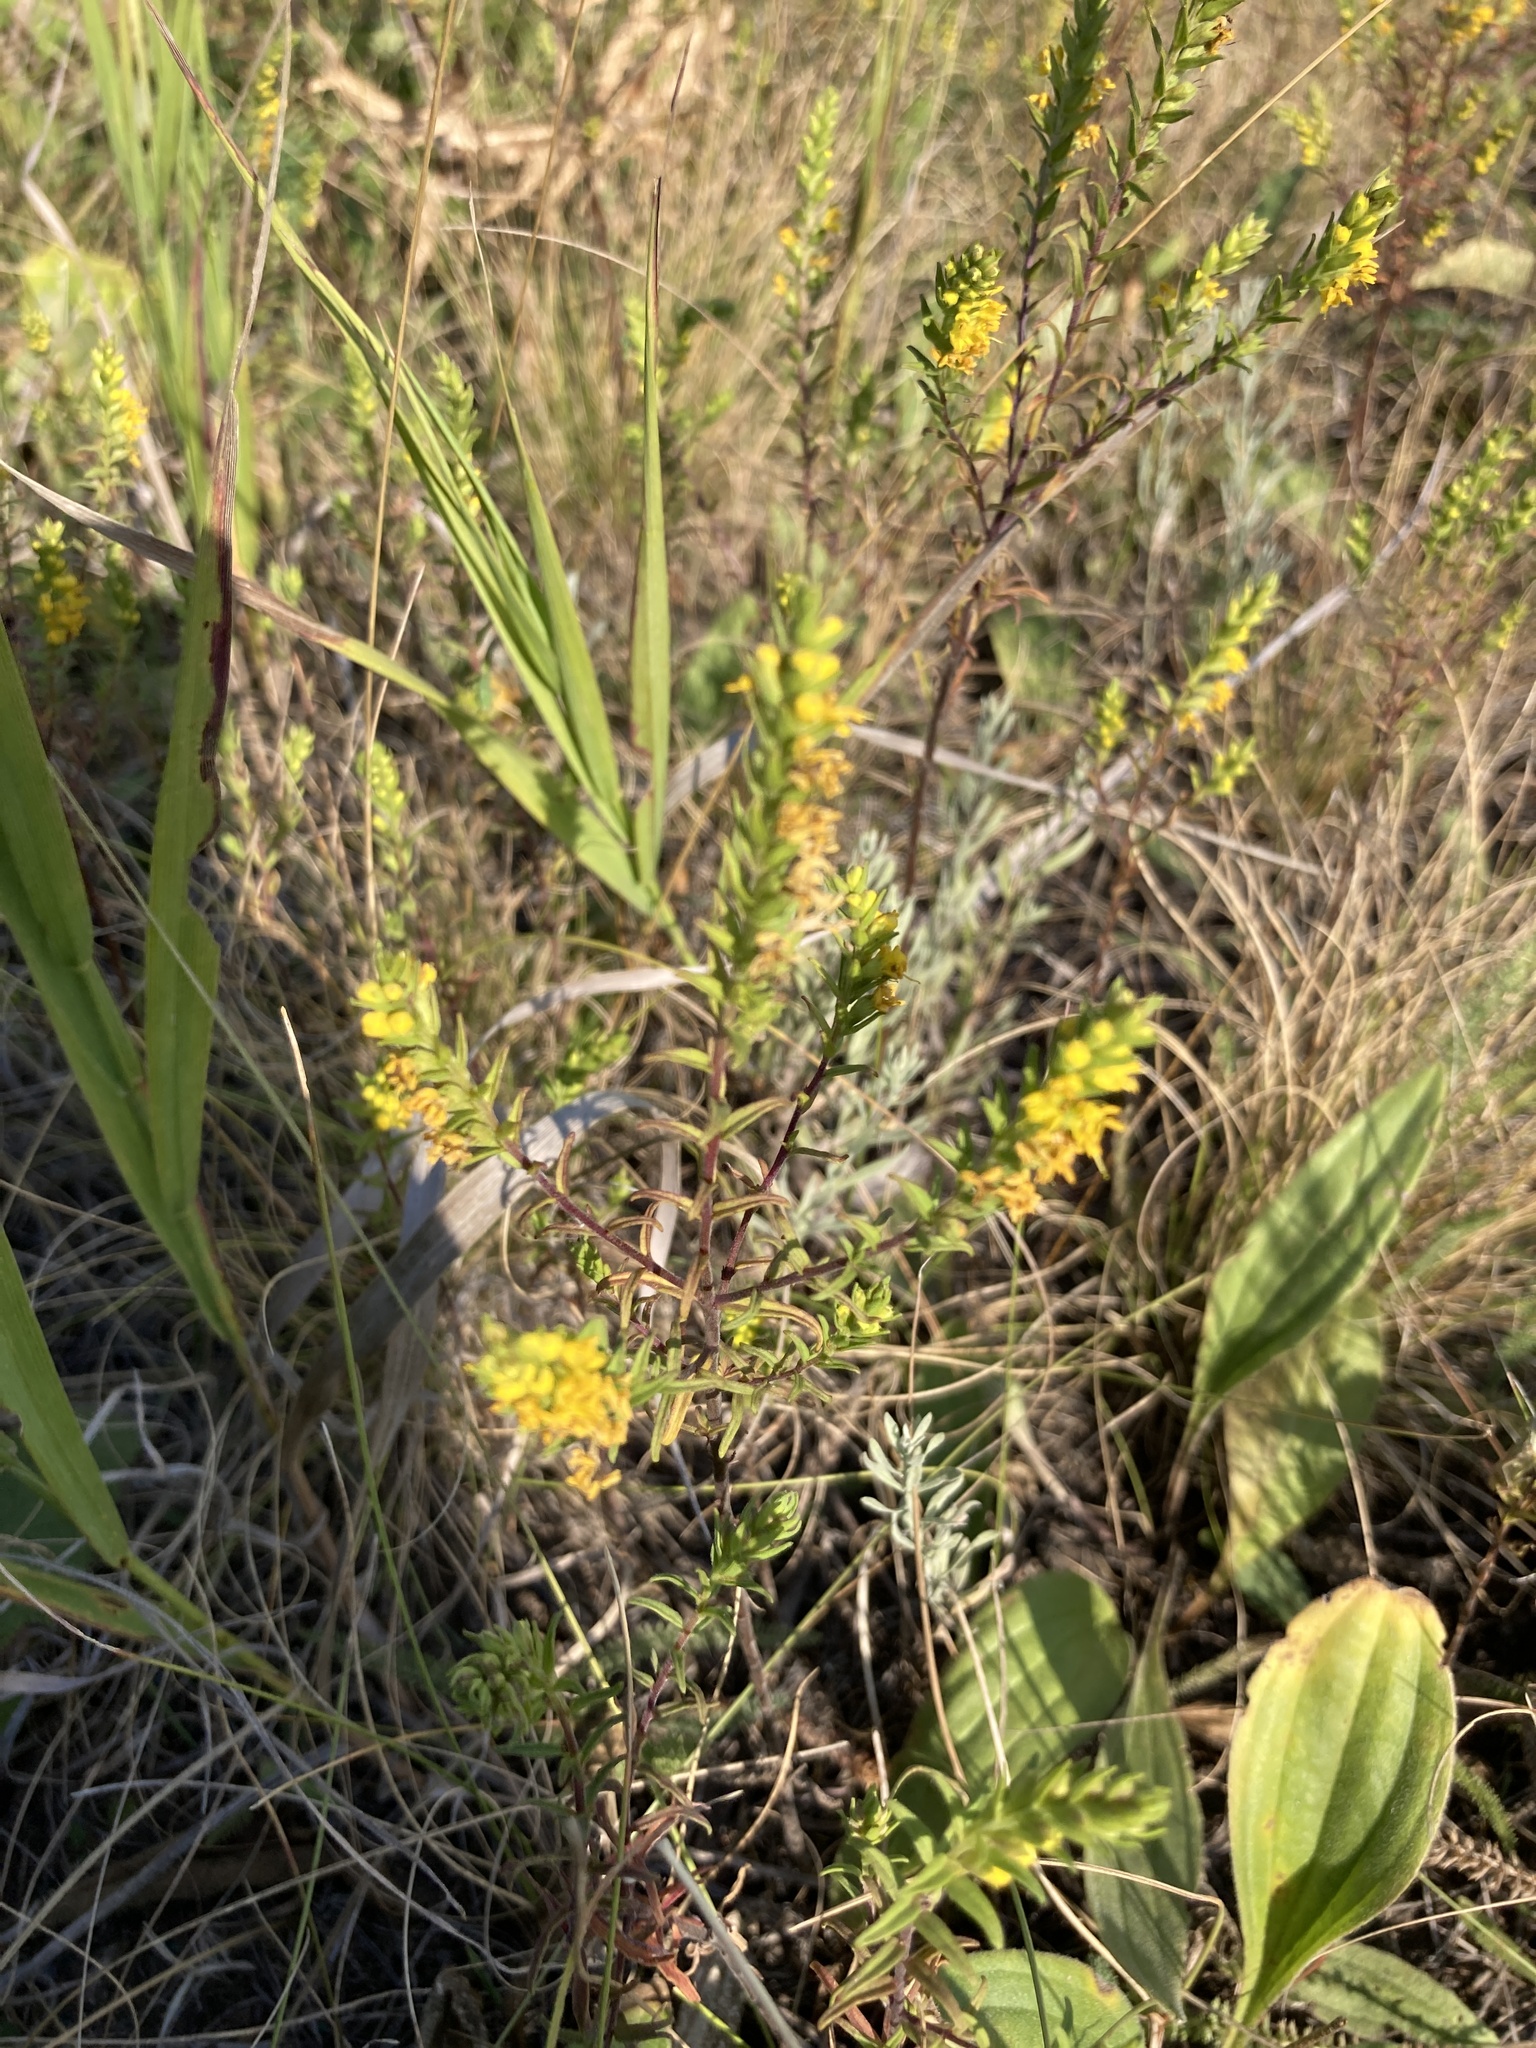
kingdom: Plantae
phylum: Tracheophyta
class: Magnoliopsida
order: Lamiales
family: Orobanchaceae
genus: Odontites
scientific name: Odontites luteus
